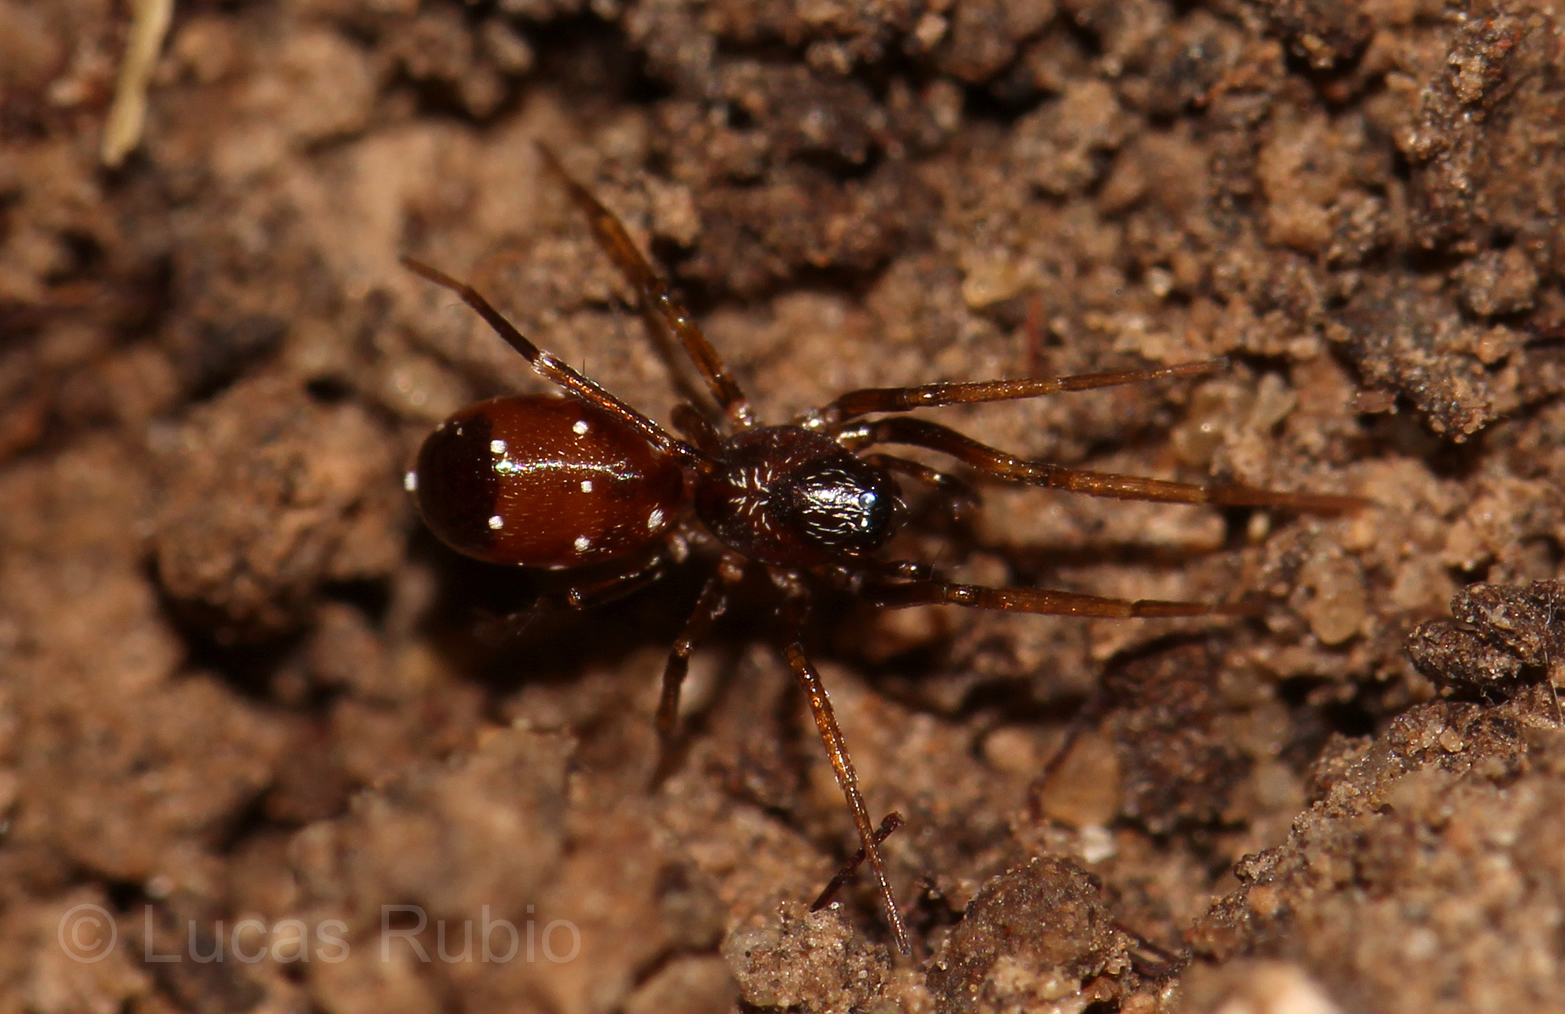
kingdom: Animalia
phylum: Arthropoda
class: Arachnida
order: Araneae
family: Corinnidae
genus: Castianeira
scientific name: Castianeira coquito
